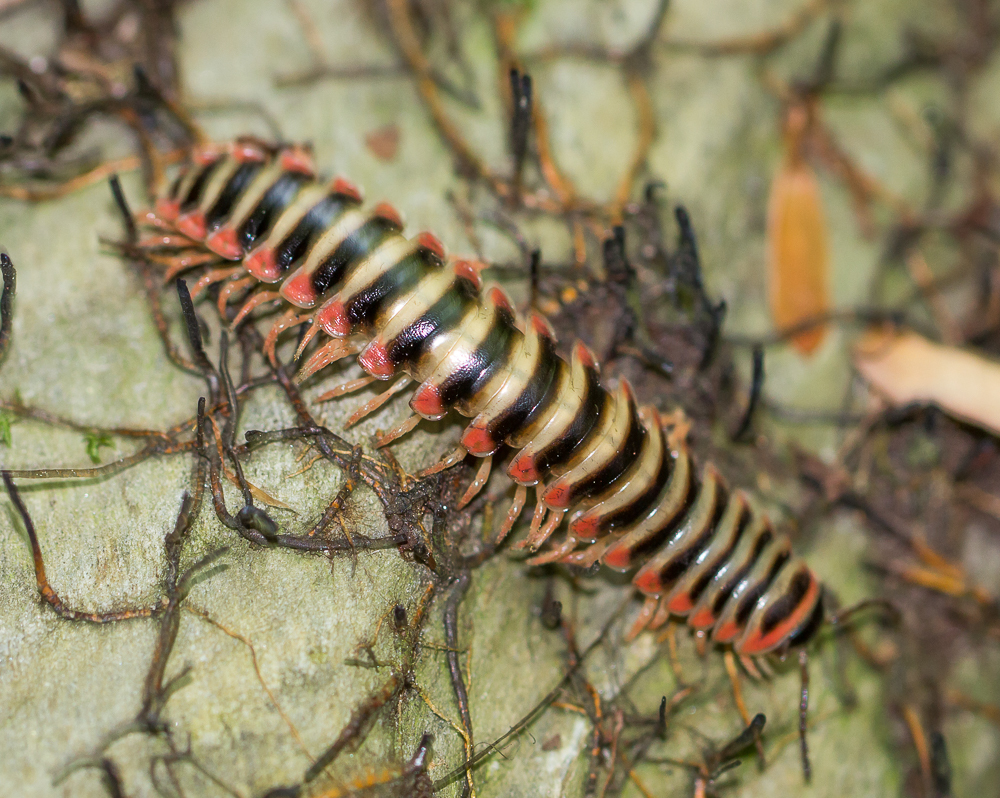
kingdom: Animalia
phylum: Arthropoda
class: Diplopoda
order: Polydesmida
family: Xystodesmidae
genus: Sigmoria
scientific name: Sigmoria nantahalae
